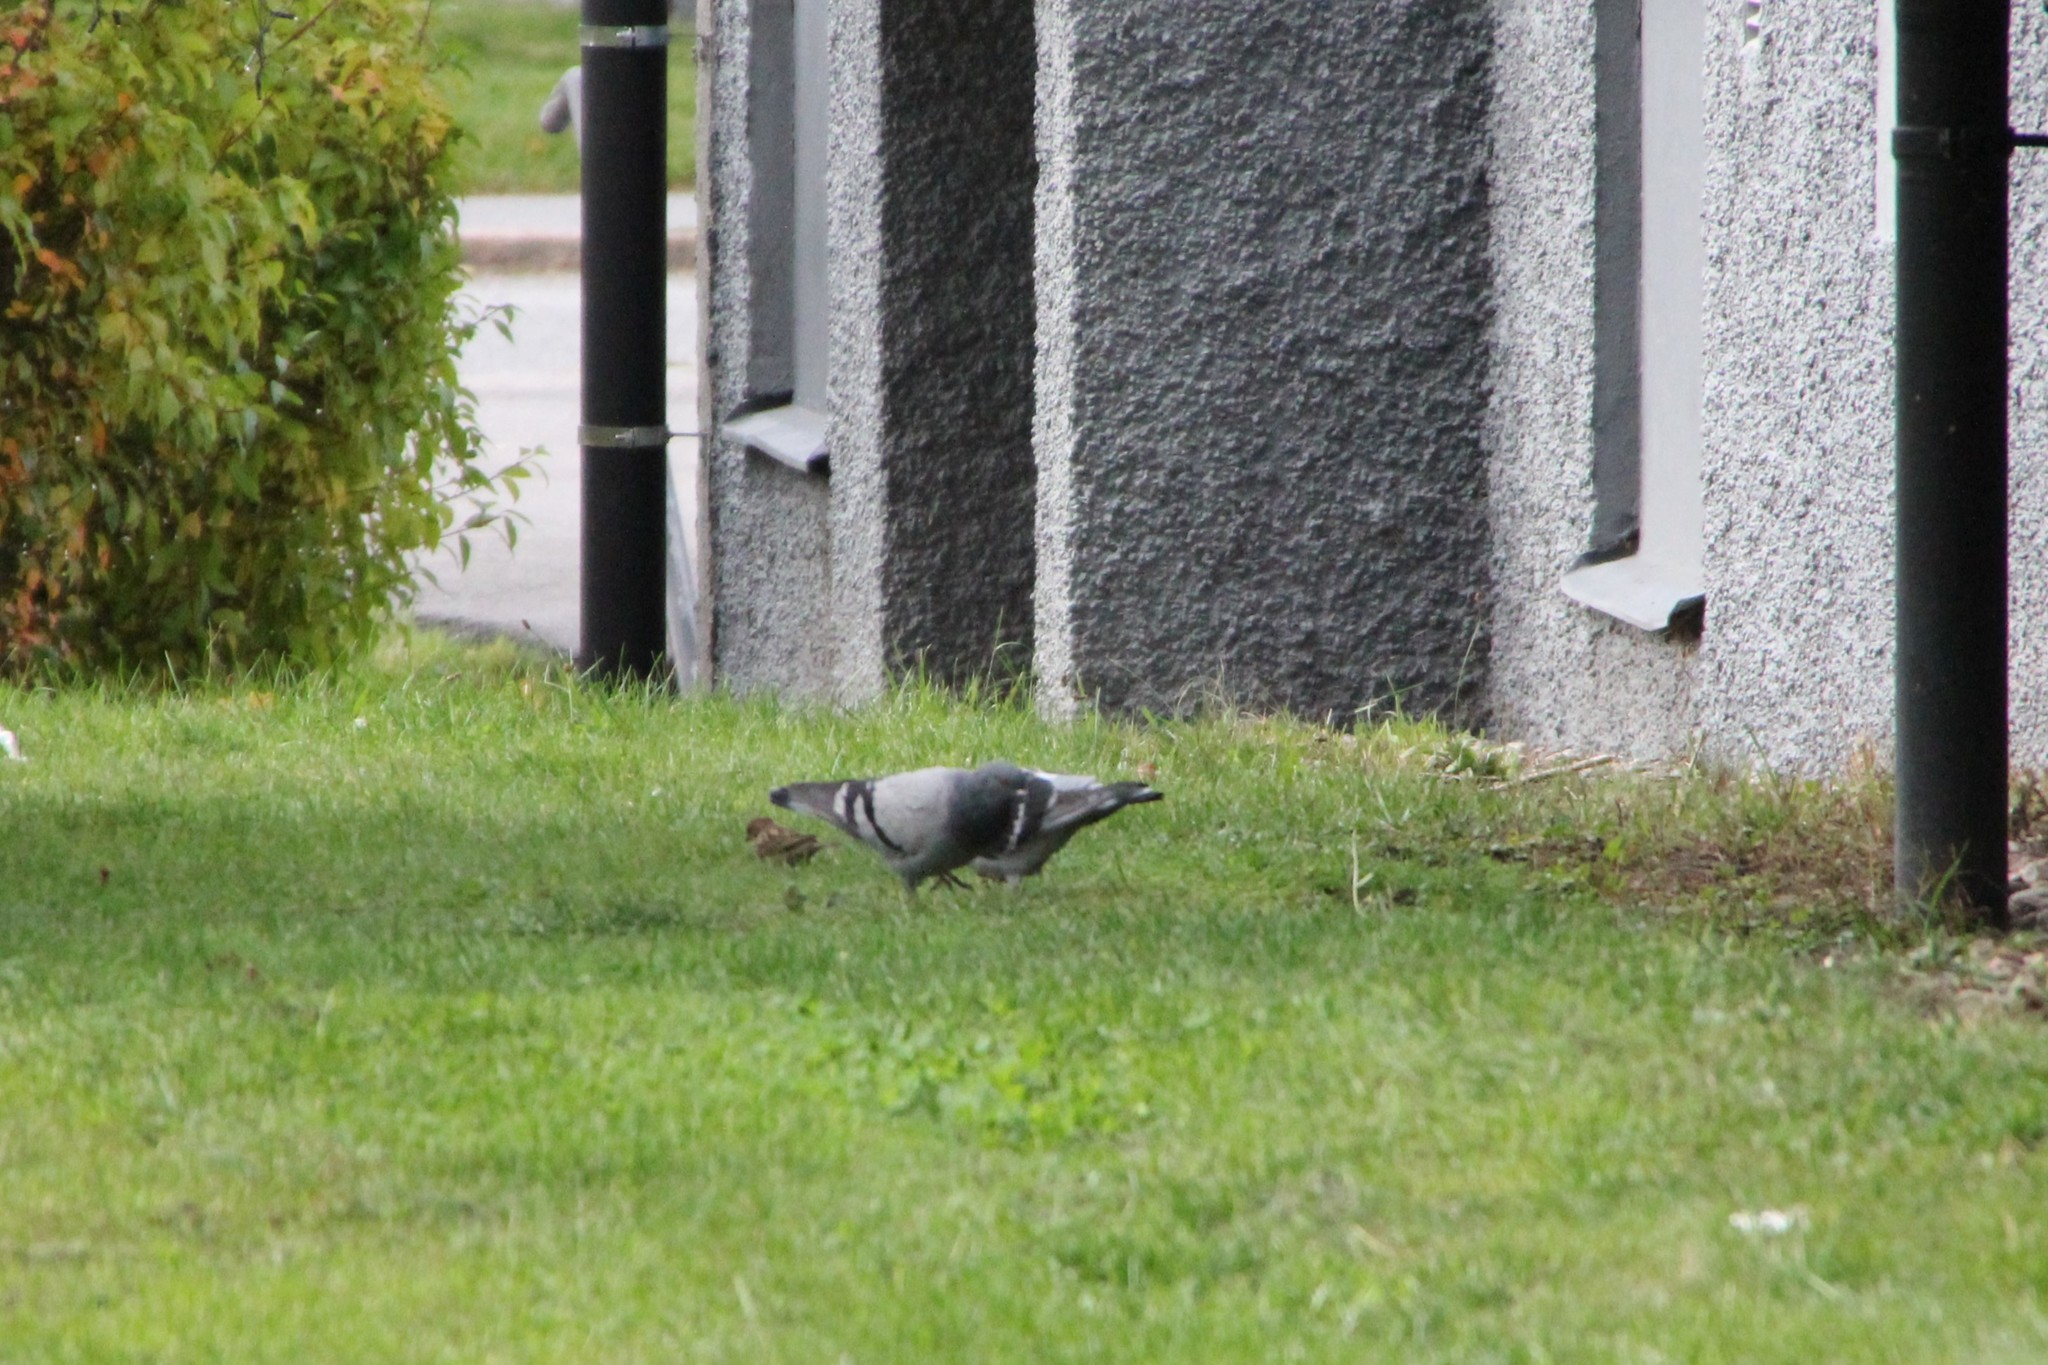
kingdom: Animalia
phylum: Chordata
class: Aves
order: Columbiformes
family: Columbidae
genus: Columba
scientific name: Columba livia
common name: Rock pigeon
